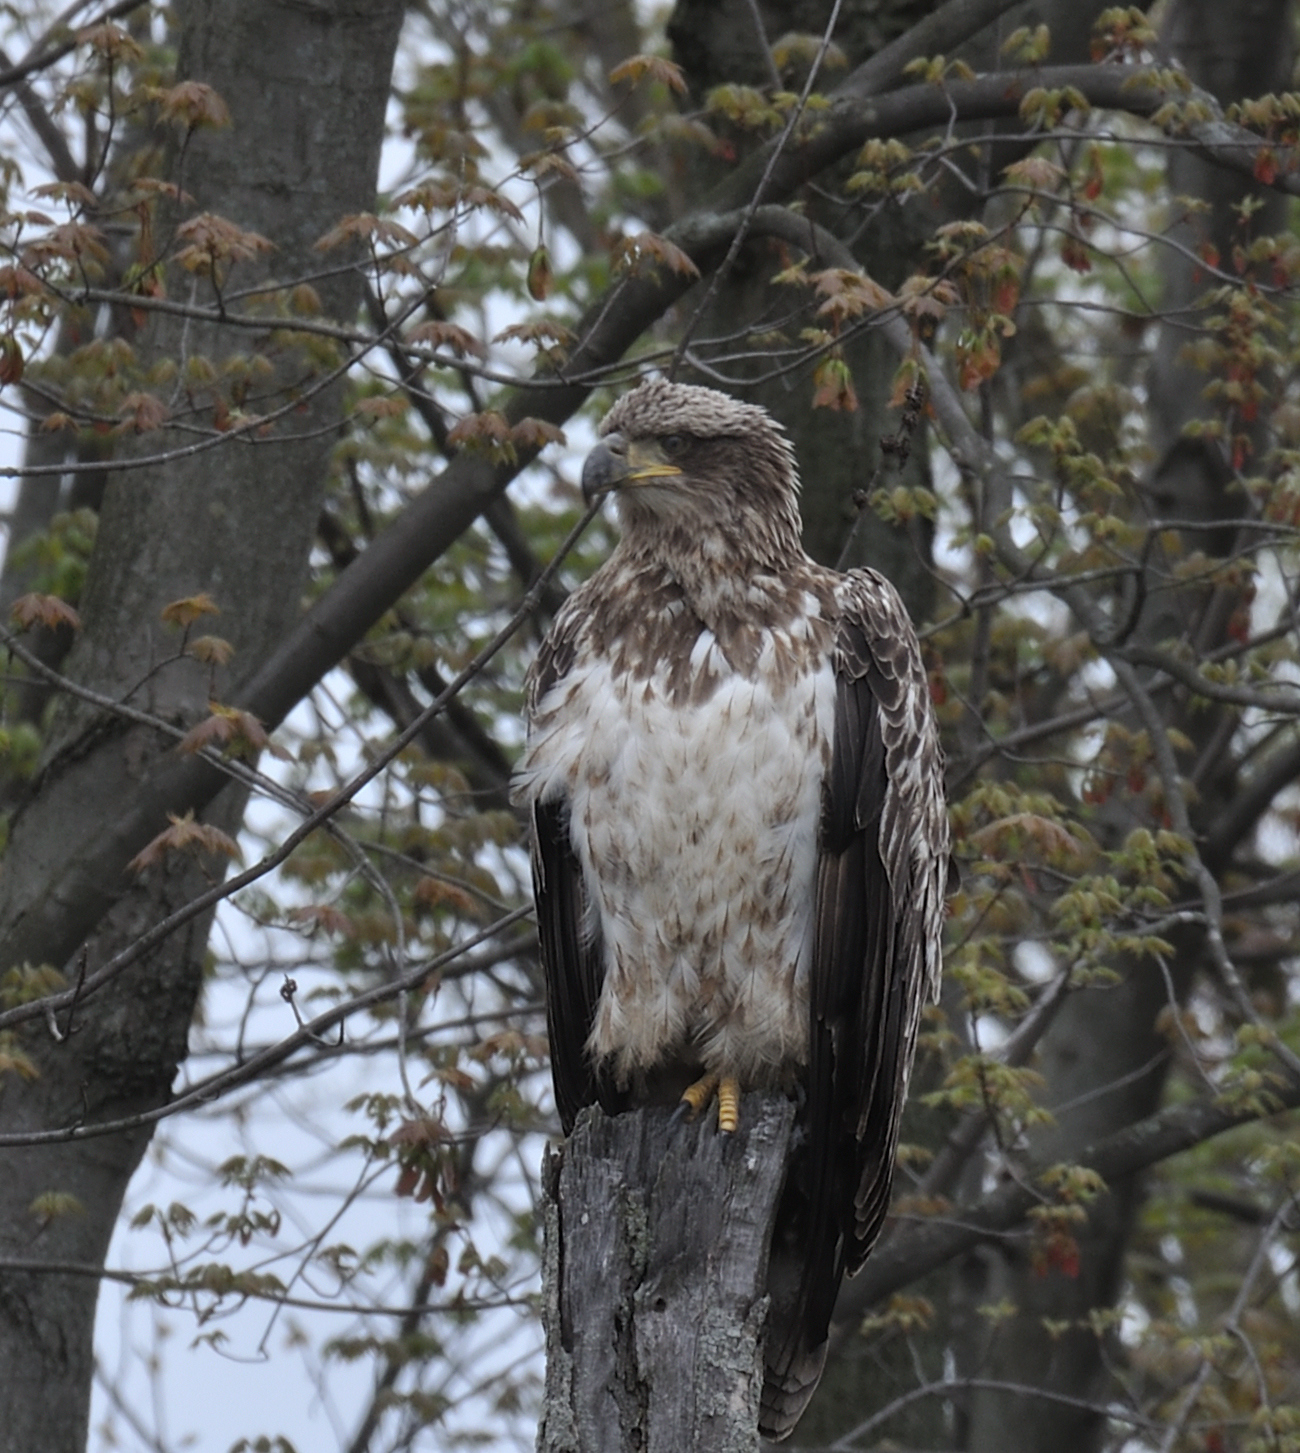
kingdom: Animalia
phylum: Chordata
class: Aves
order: Accipitriformes
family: Accipitridae
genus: Haliaeetus
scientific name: Haliaeetus leucocephalus
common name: Bald eagle
